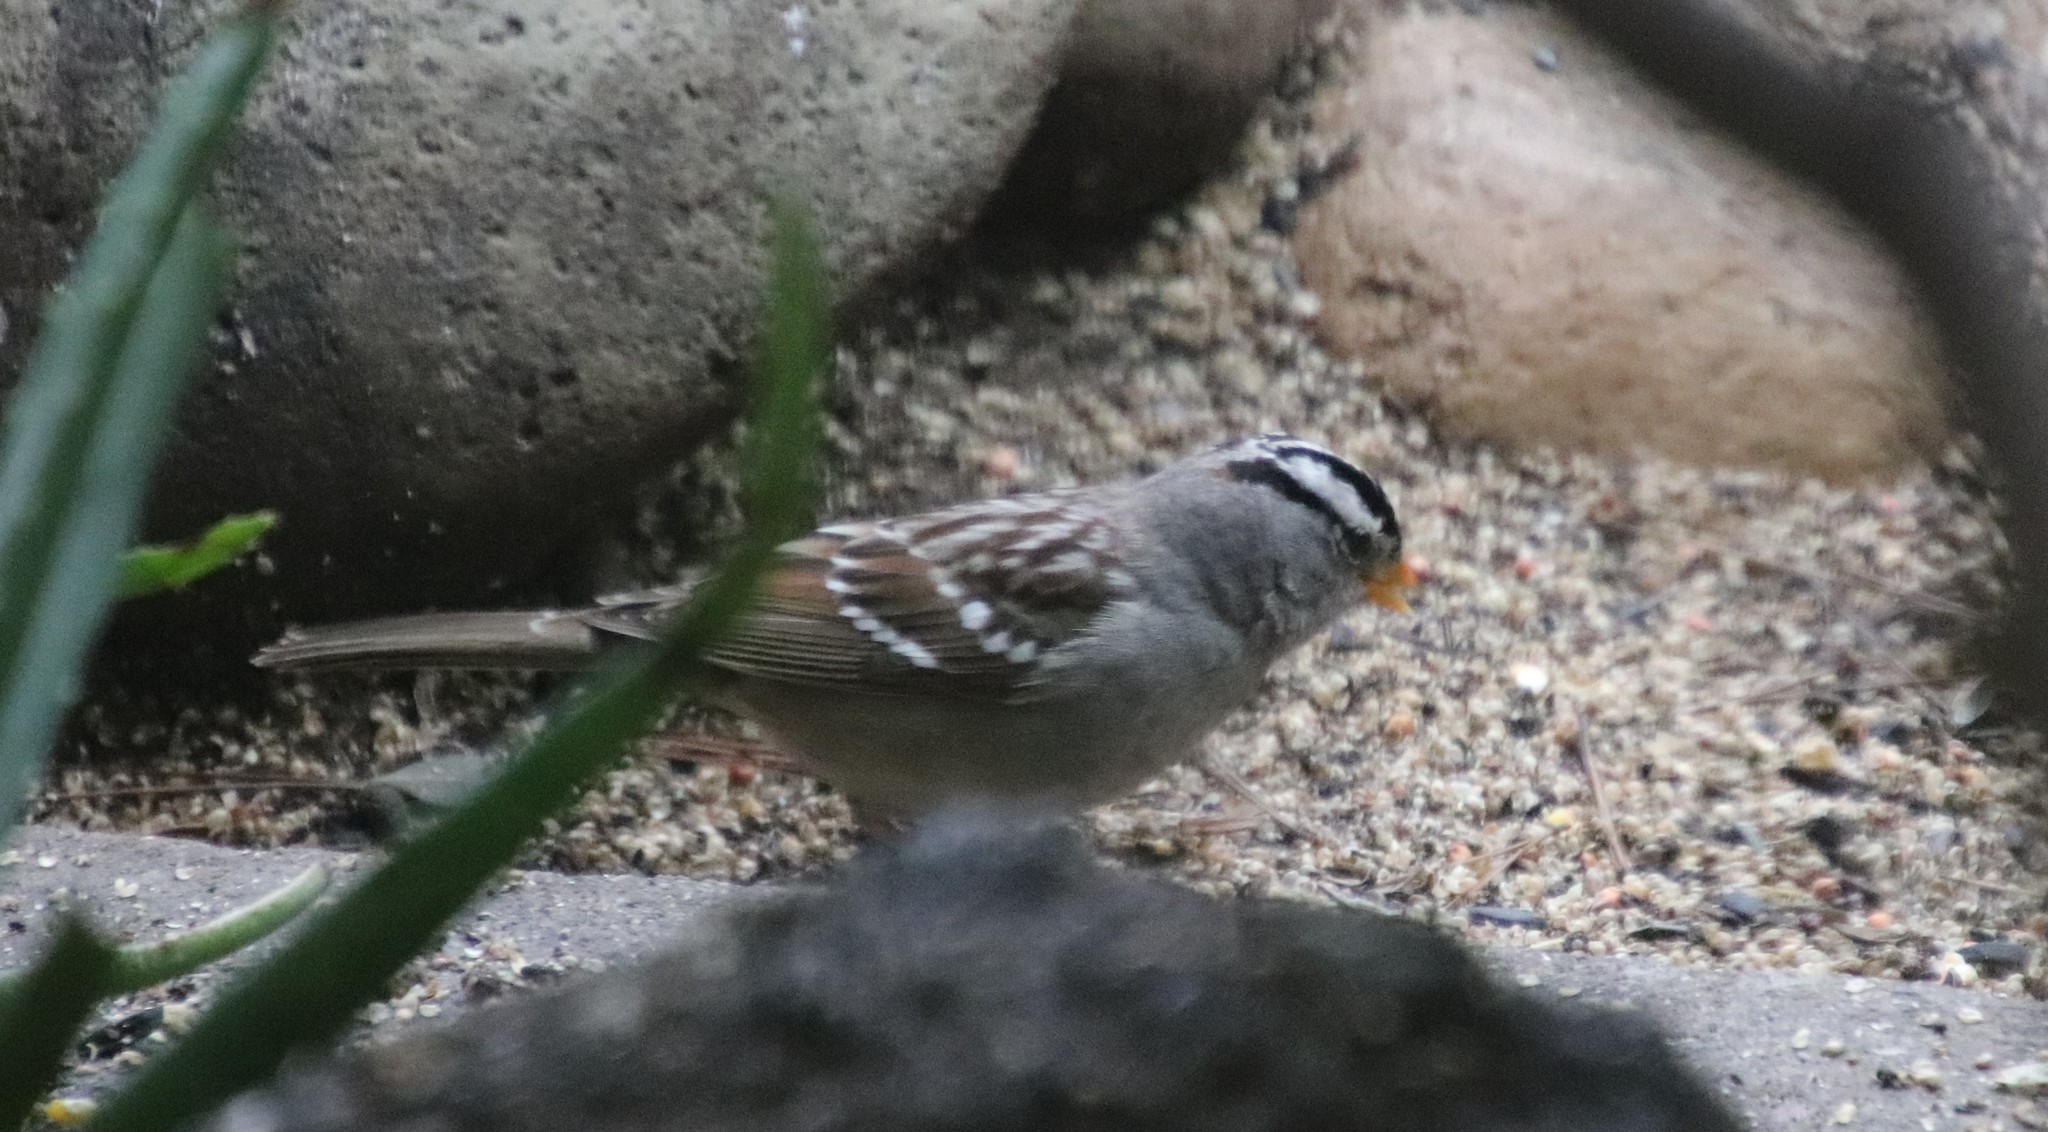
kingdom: Animalia
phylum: Chordata
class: Aves
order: Passeriformes
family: Passerellidae
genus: Zonotrichia
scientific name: Zonotrichia leucophrys
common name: White-crowned sparrow
